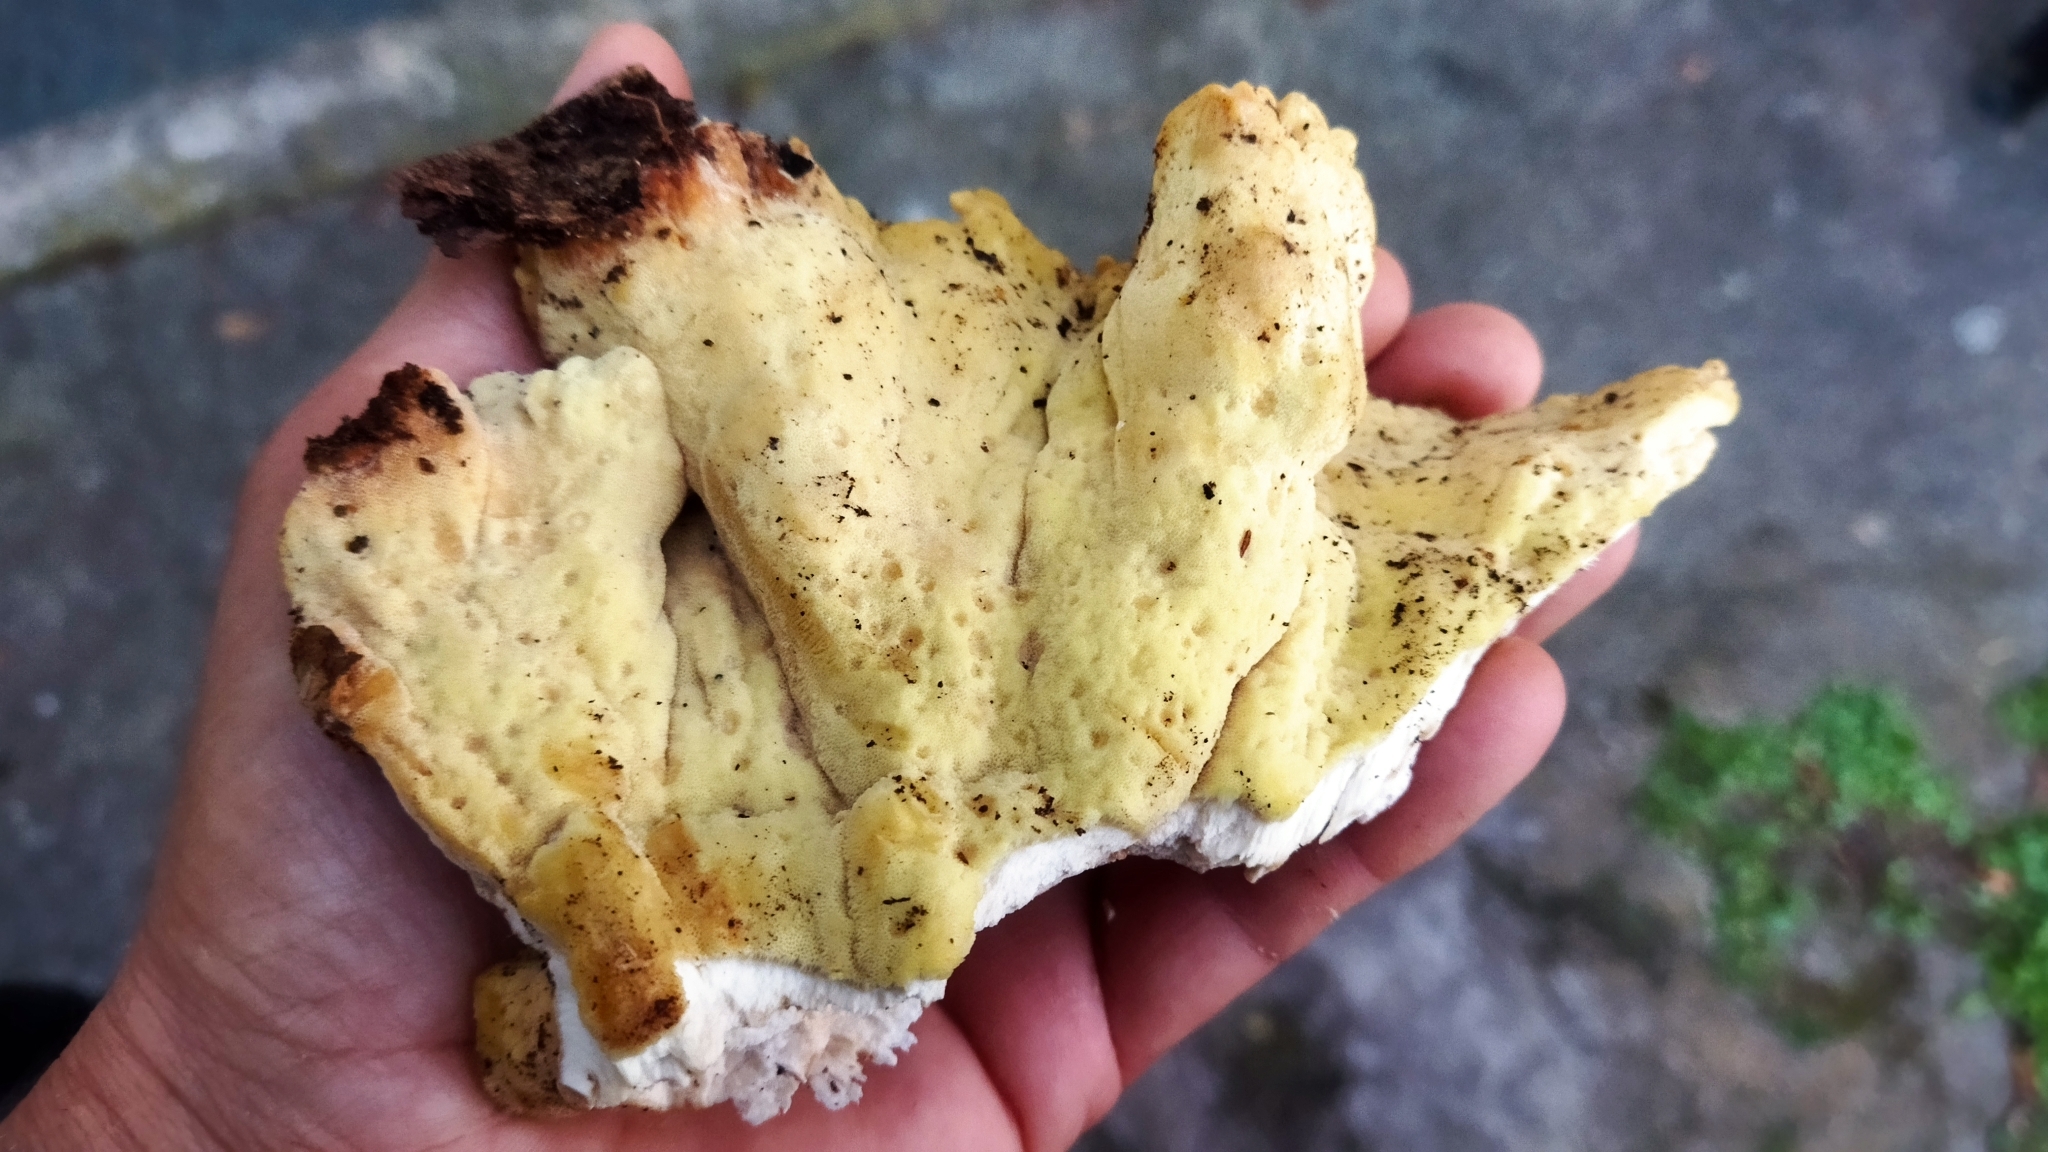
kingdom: Fungi
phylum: Basidiomycota
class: Agaricomycetes
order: Polyporales
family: Laetiporaceae
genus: Laetiporus
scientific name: Laetiporus sulphureus
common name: Chicken of the woods
